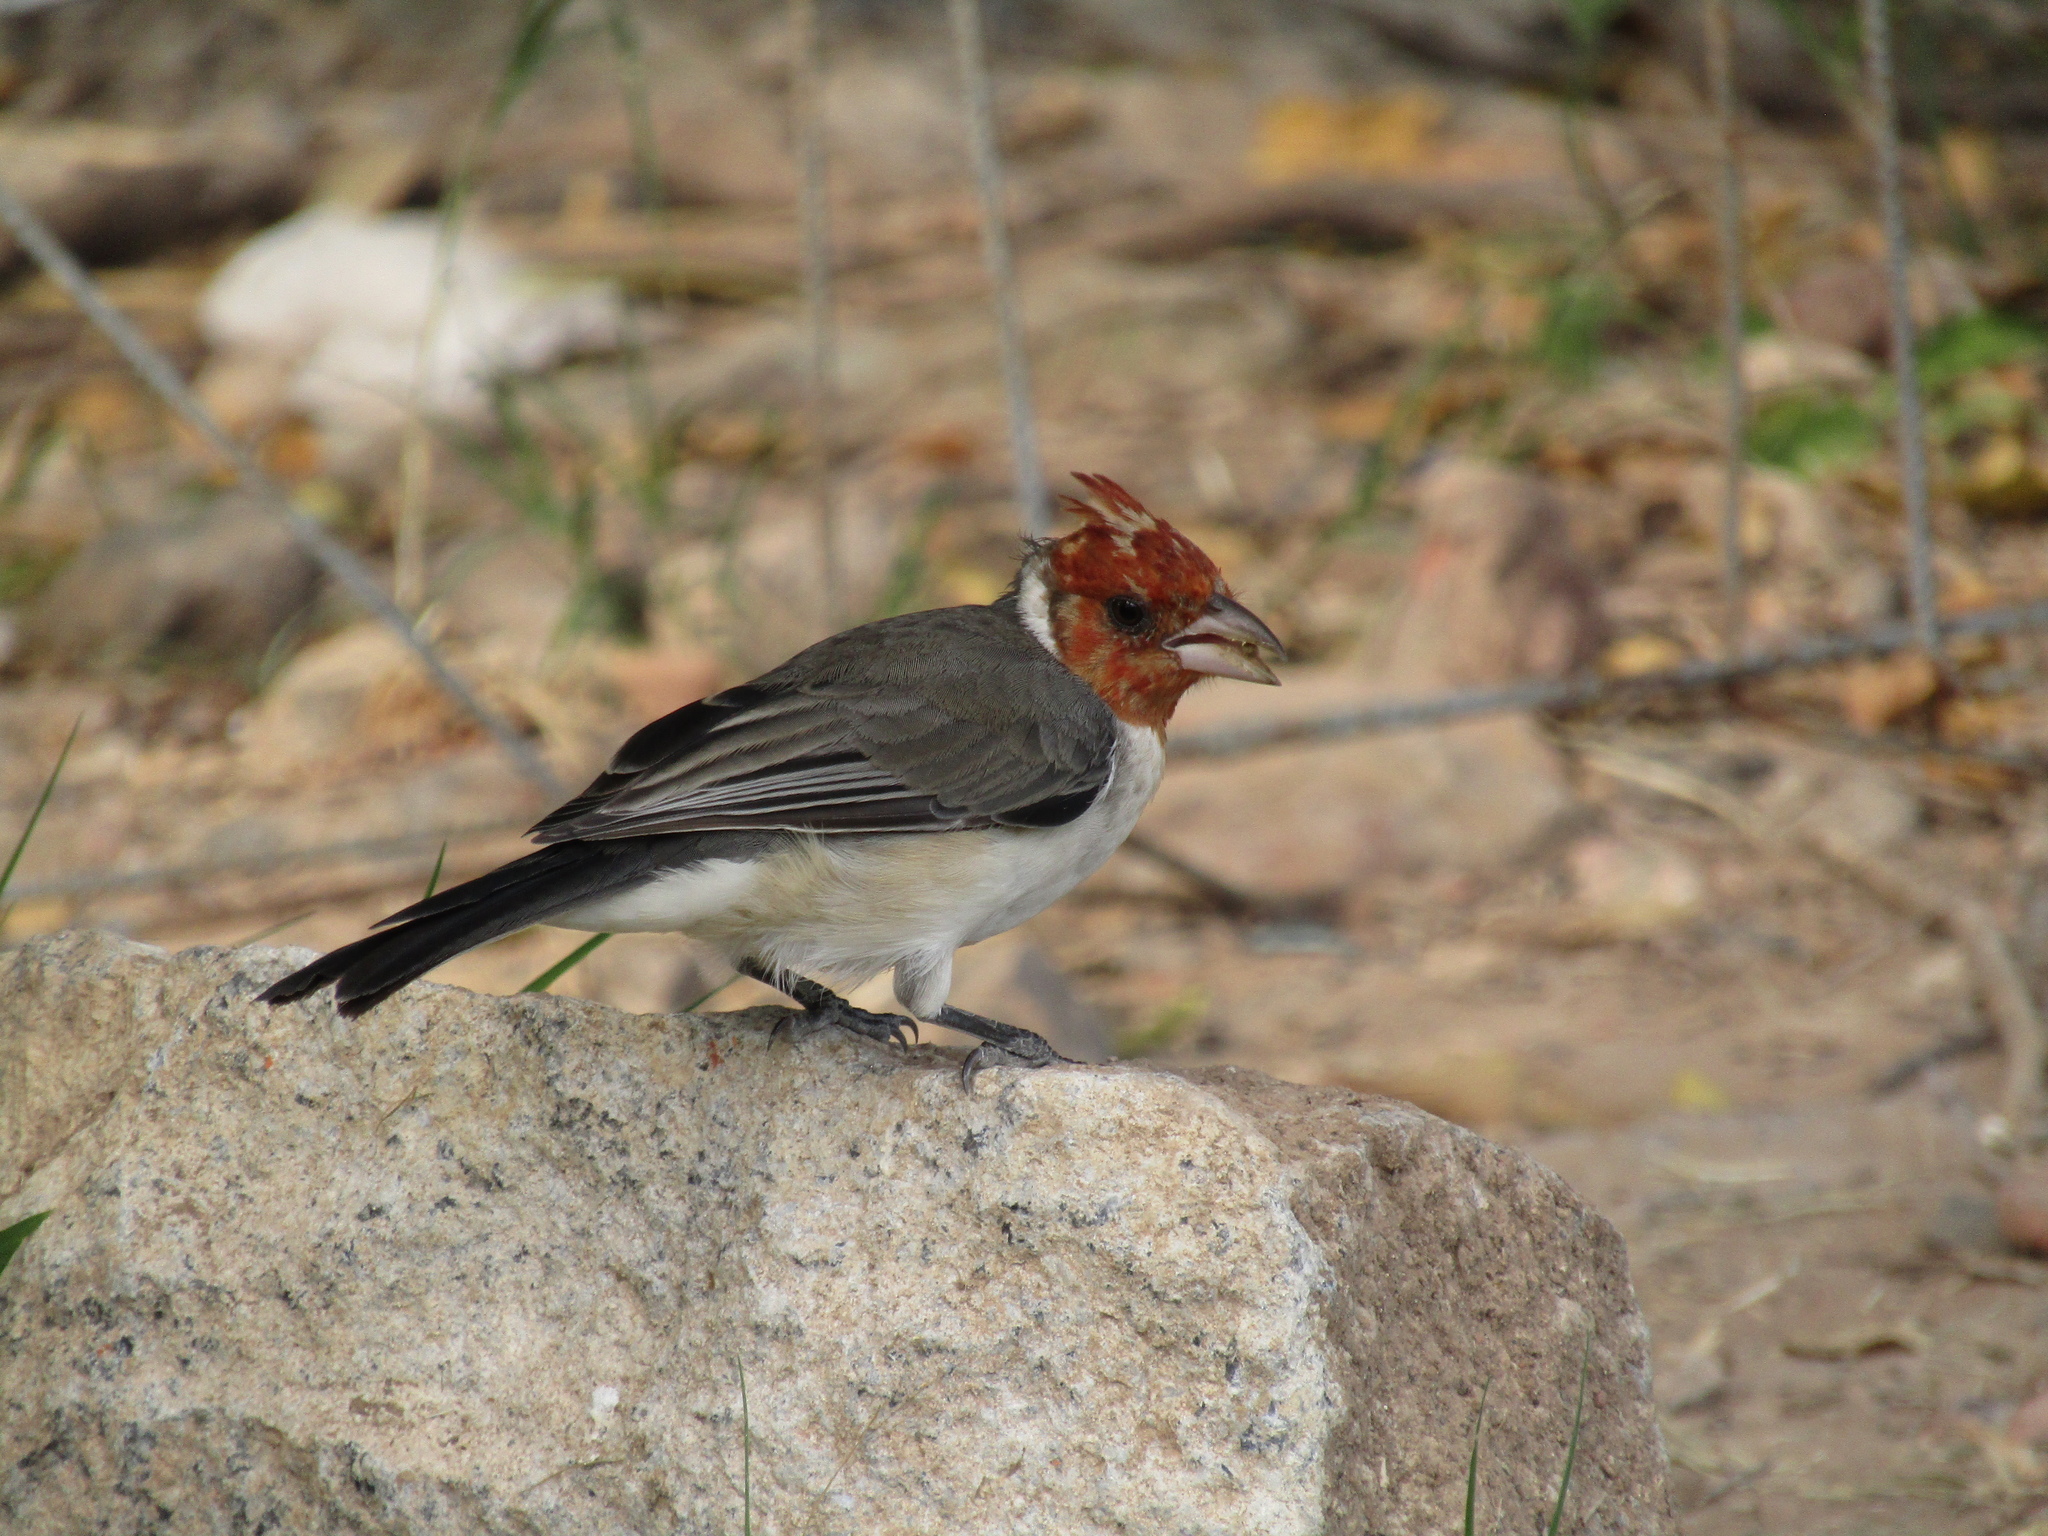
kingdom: Animalia
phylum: Chordata
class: Aves
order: Passeriformes
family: Thraupidae
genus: Paroaria
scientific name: Paroaria coronata
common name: Red-crested cardinal
